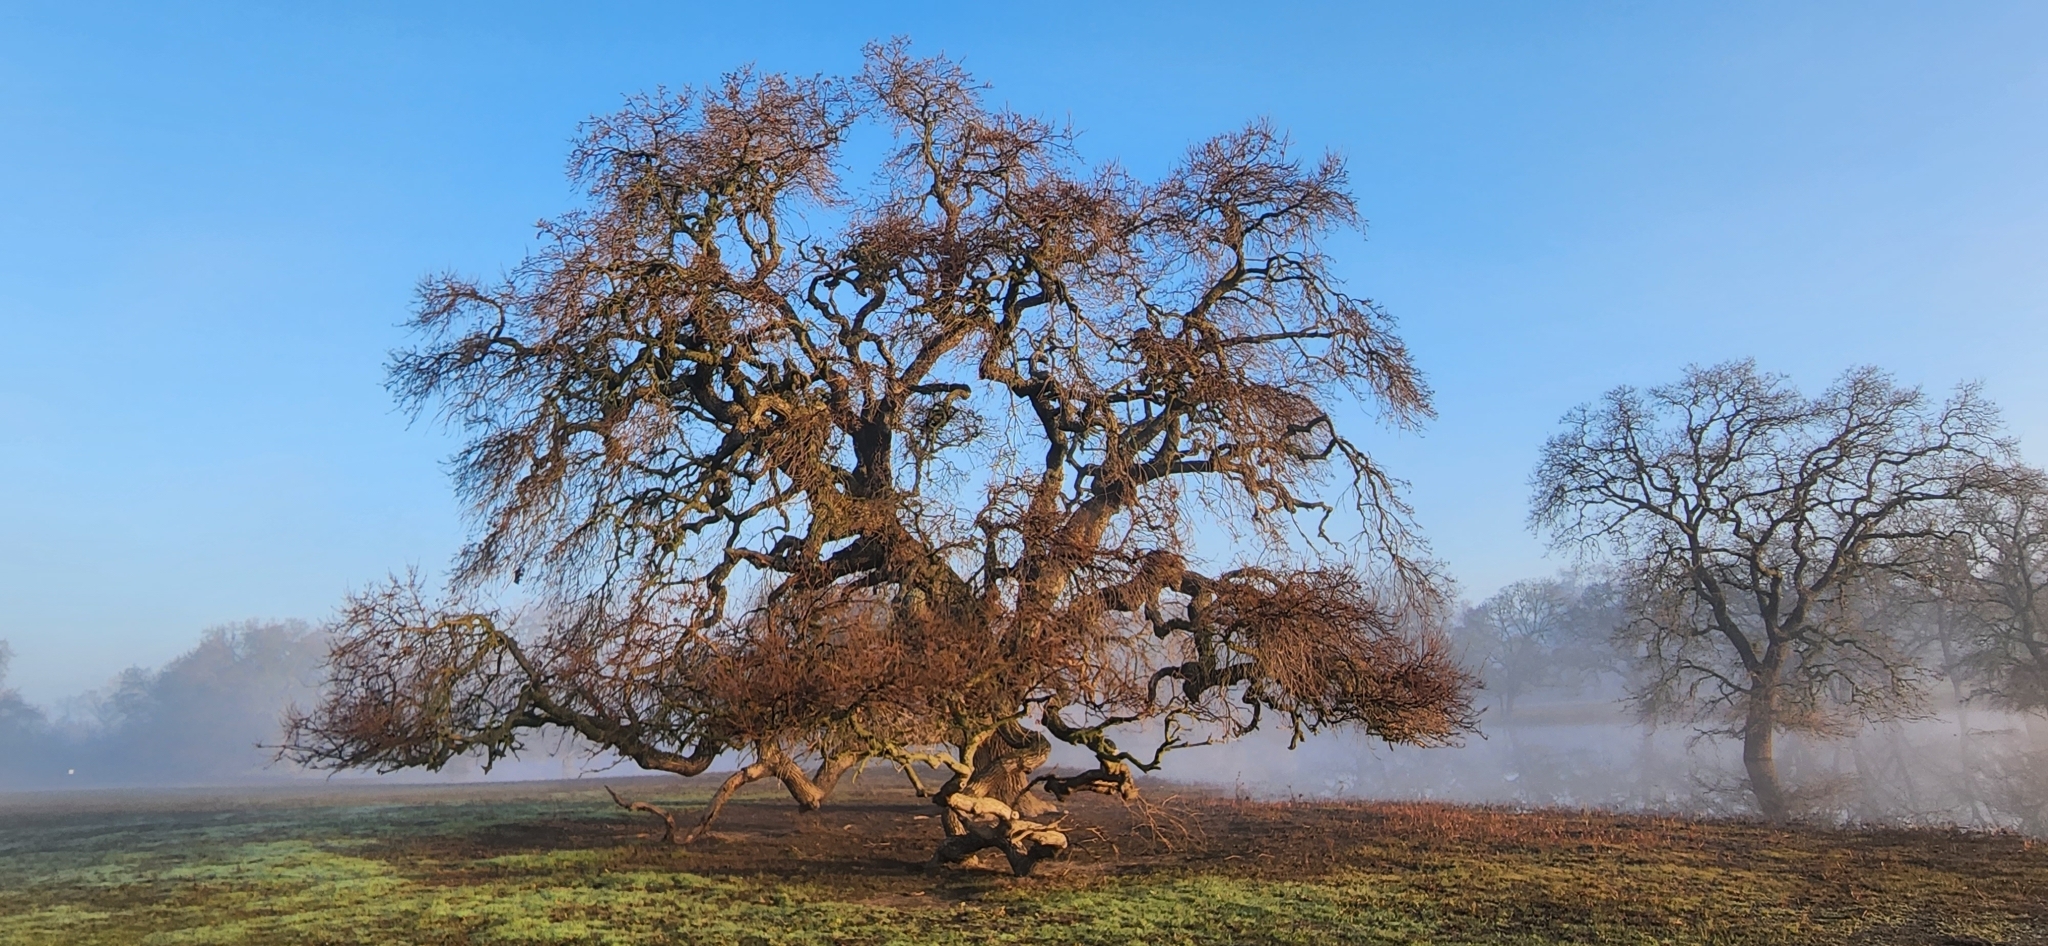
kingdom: Plantae
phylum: Tracheophyta
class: Magnoliopsida
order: Fagales
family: Fagaceae
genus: Quercus
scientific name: Quercus lobata
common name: Valley oak
